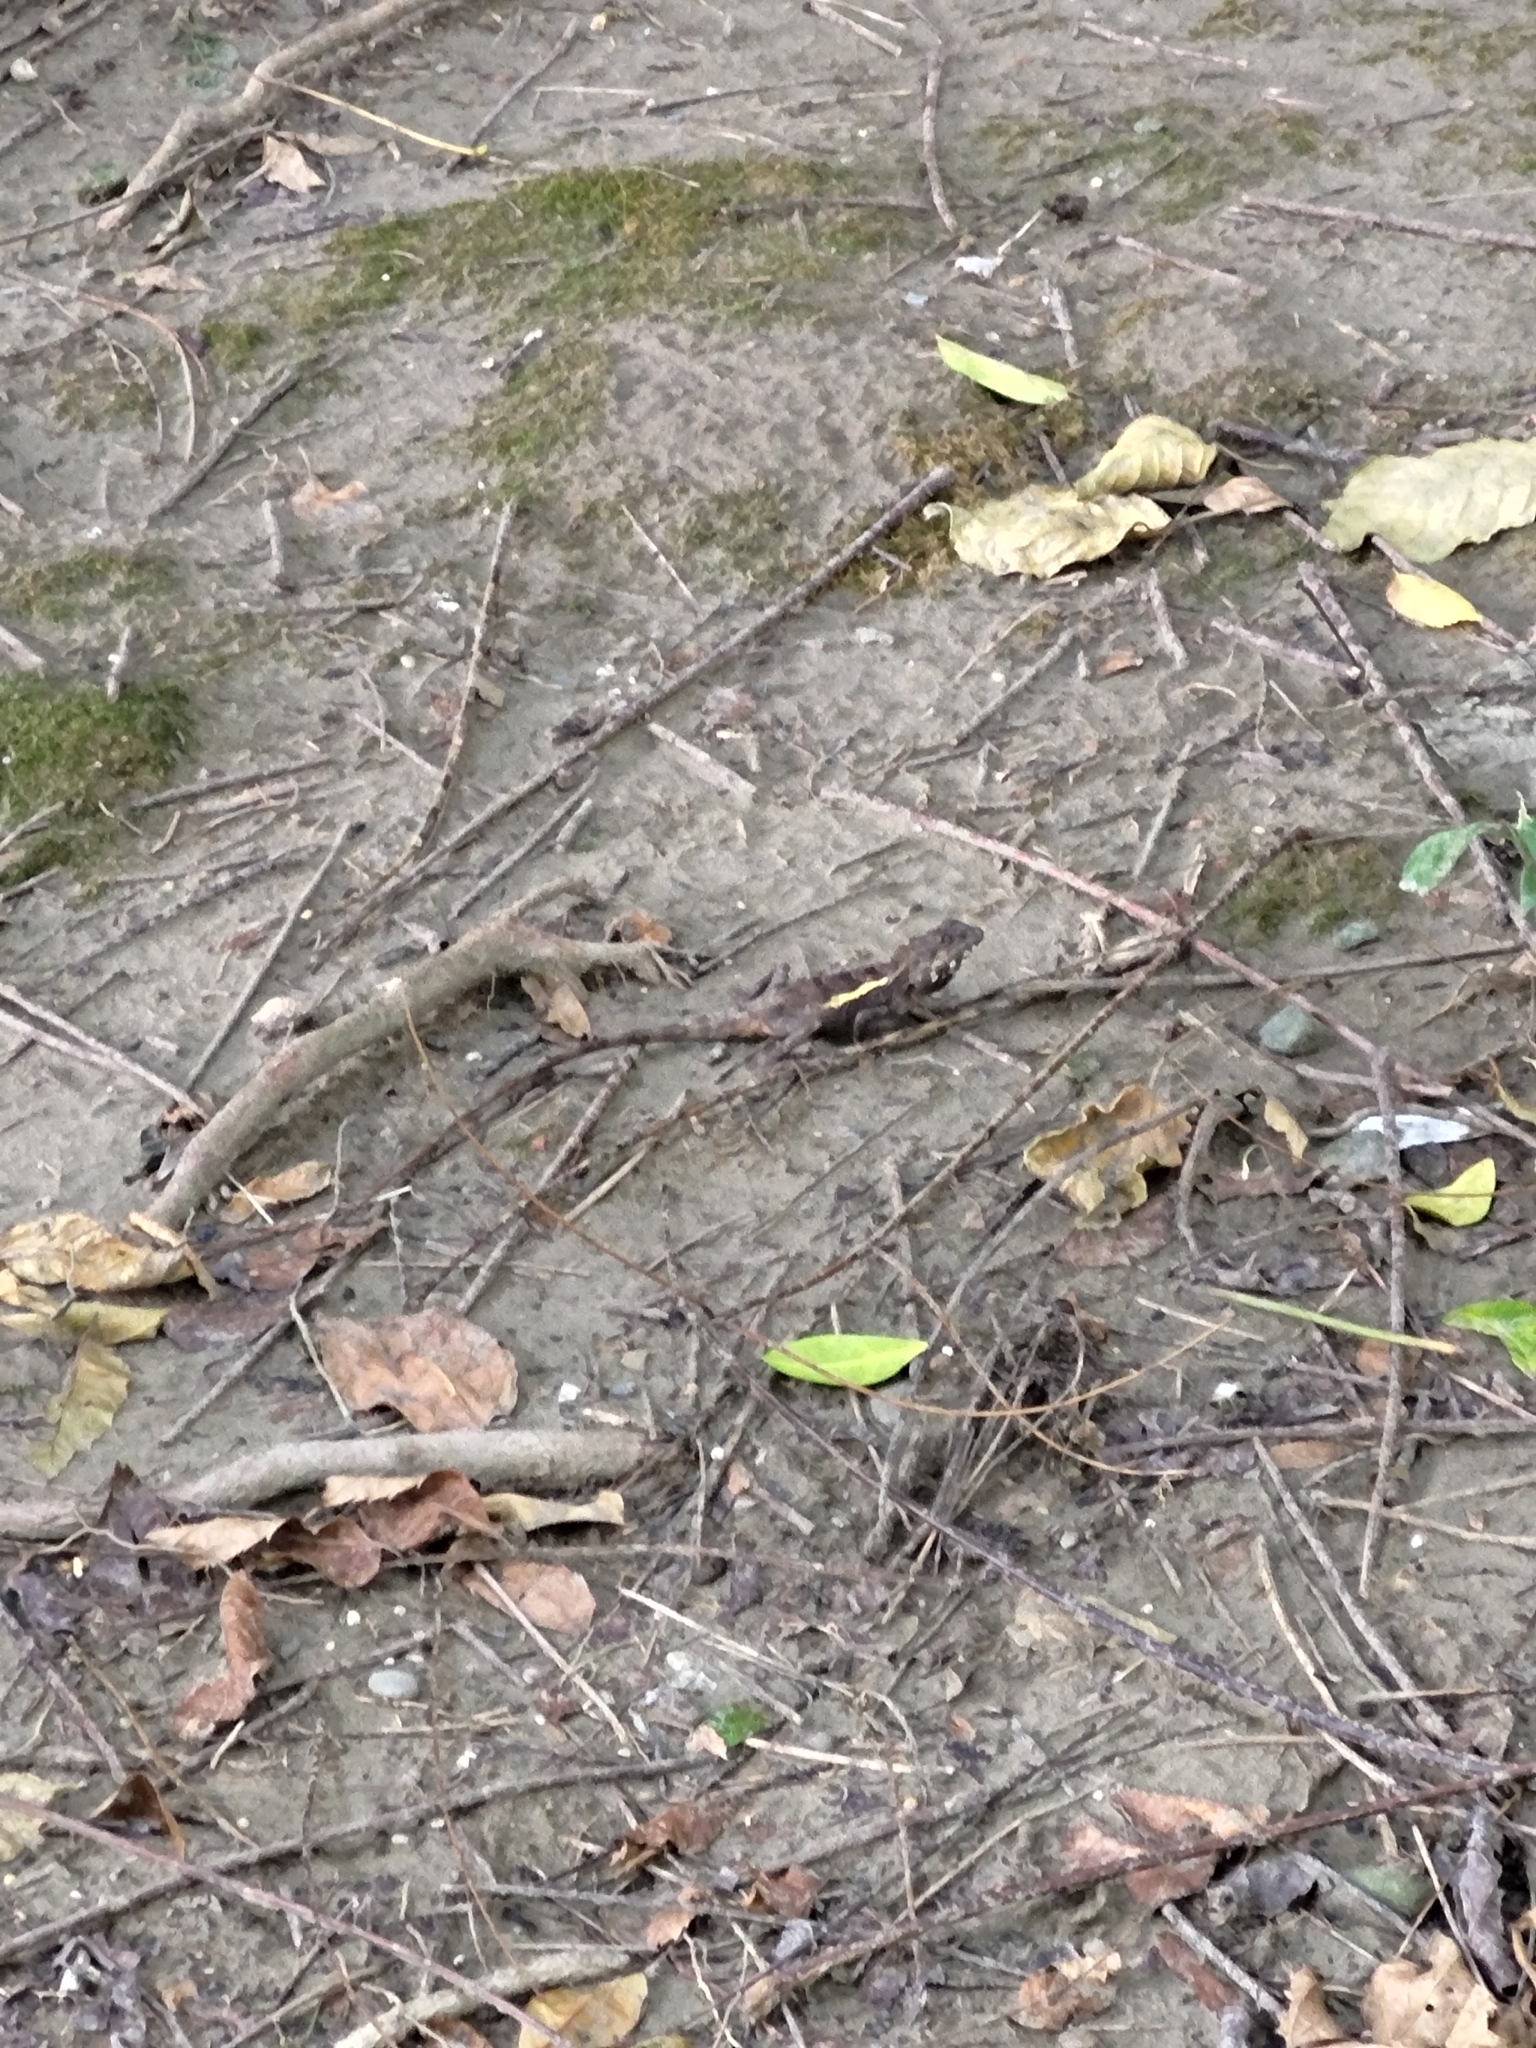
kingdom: Animalia
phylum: Chordata
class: Squamata
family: Agamidae
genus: Diploderma
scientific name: Diploderma swinhonis
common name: Taiwan japalure
